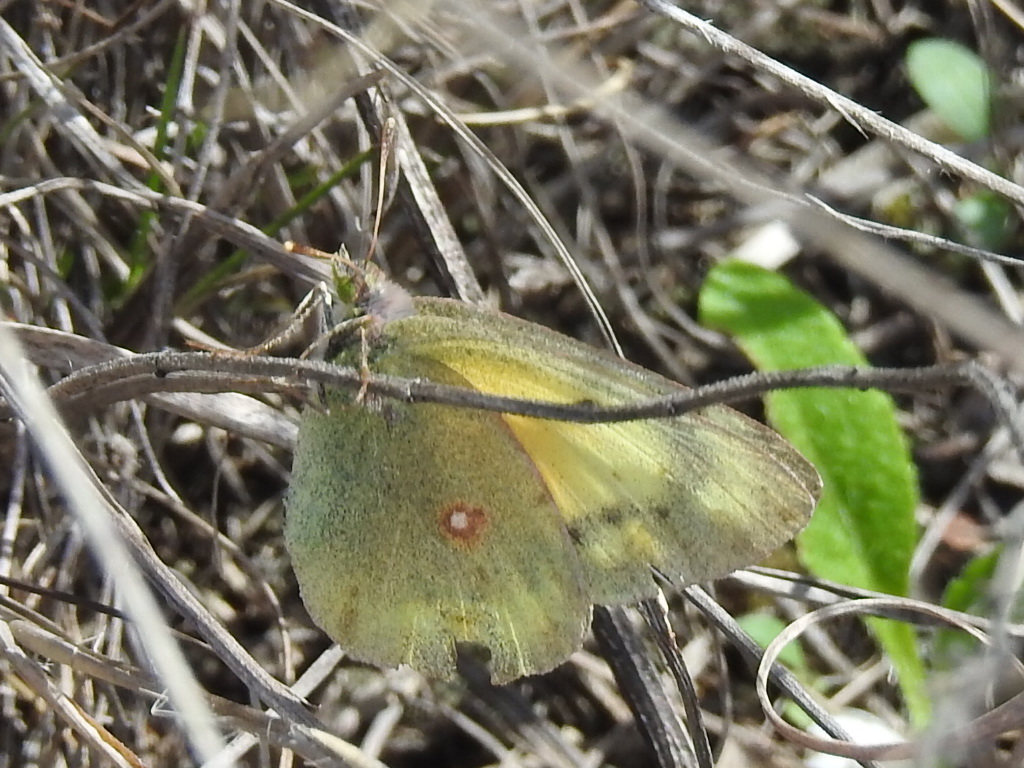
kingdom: Animalia
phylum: Arthropoda
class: Insecta
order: Lepidoptera
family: Pieridae
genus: Colias
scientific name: Colias eurytheme
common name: Alfalfa butterfly
